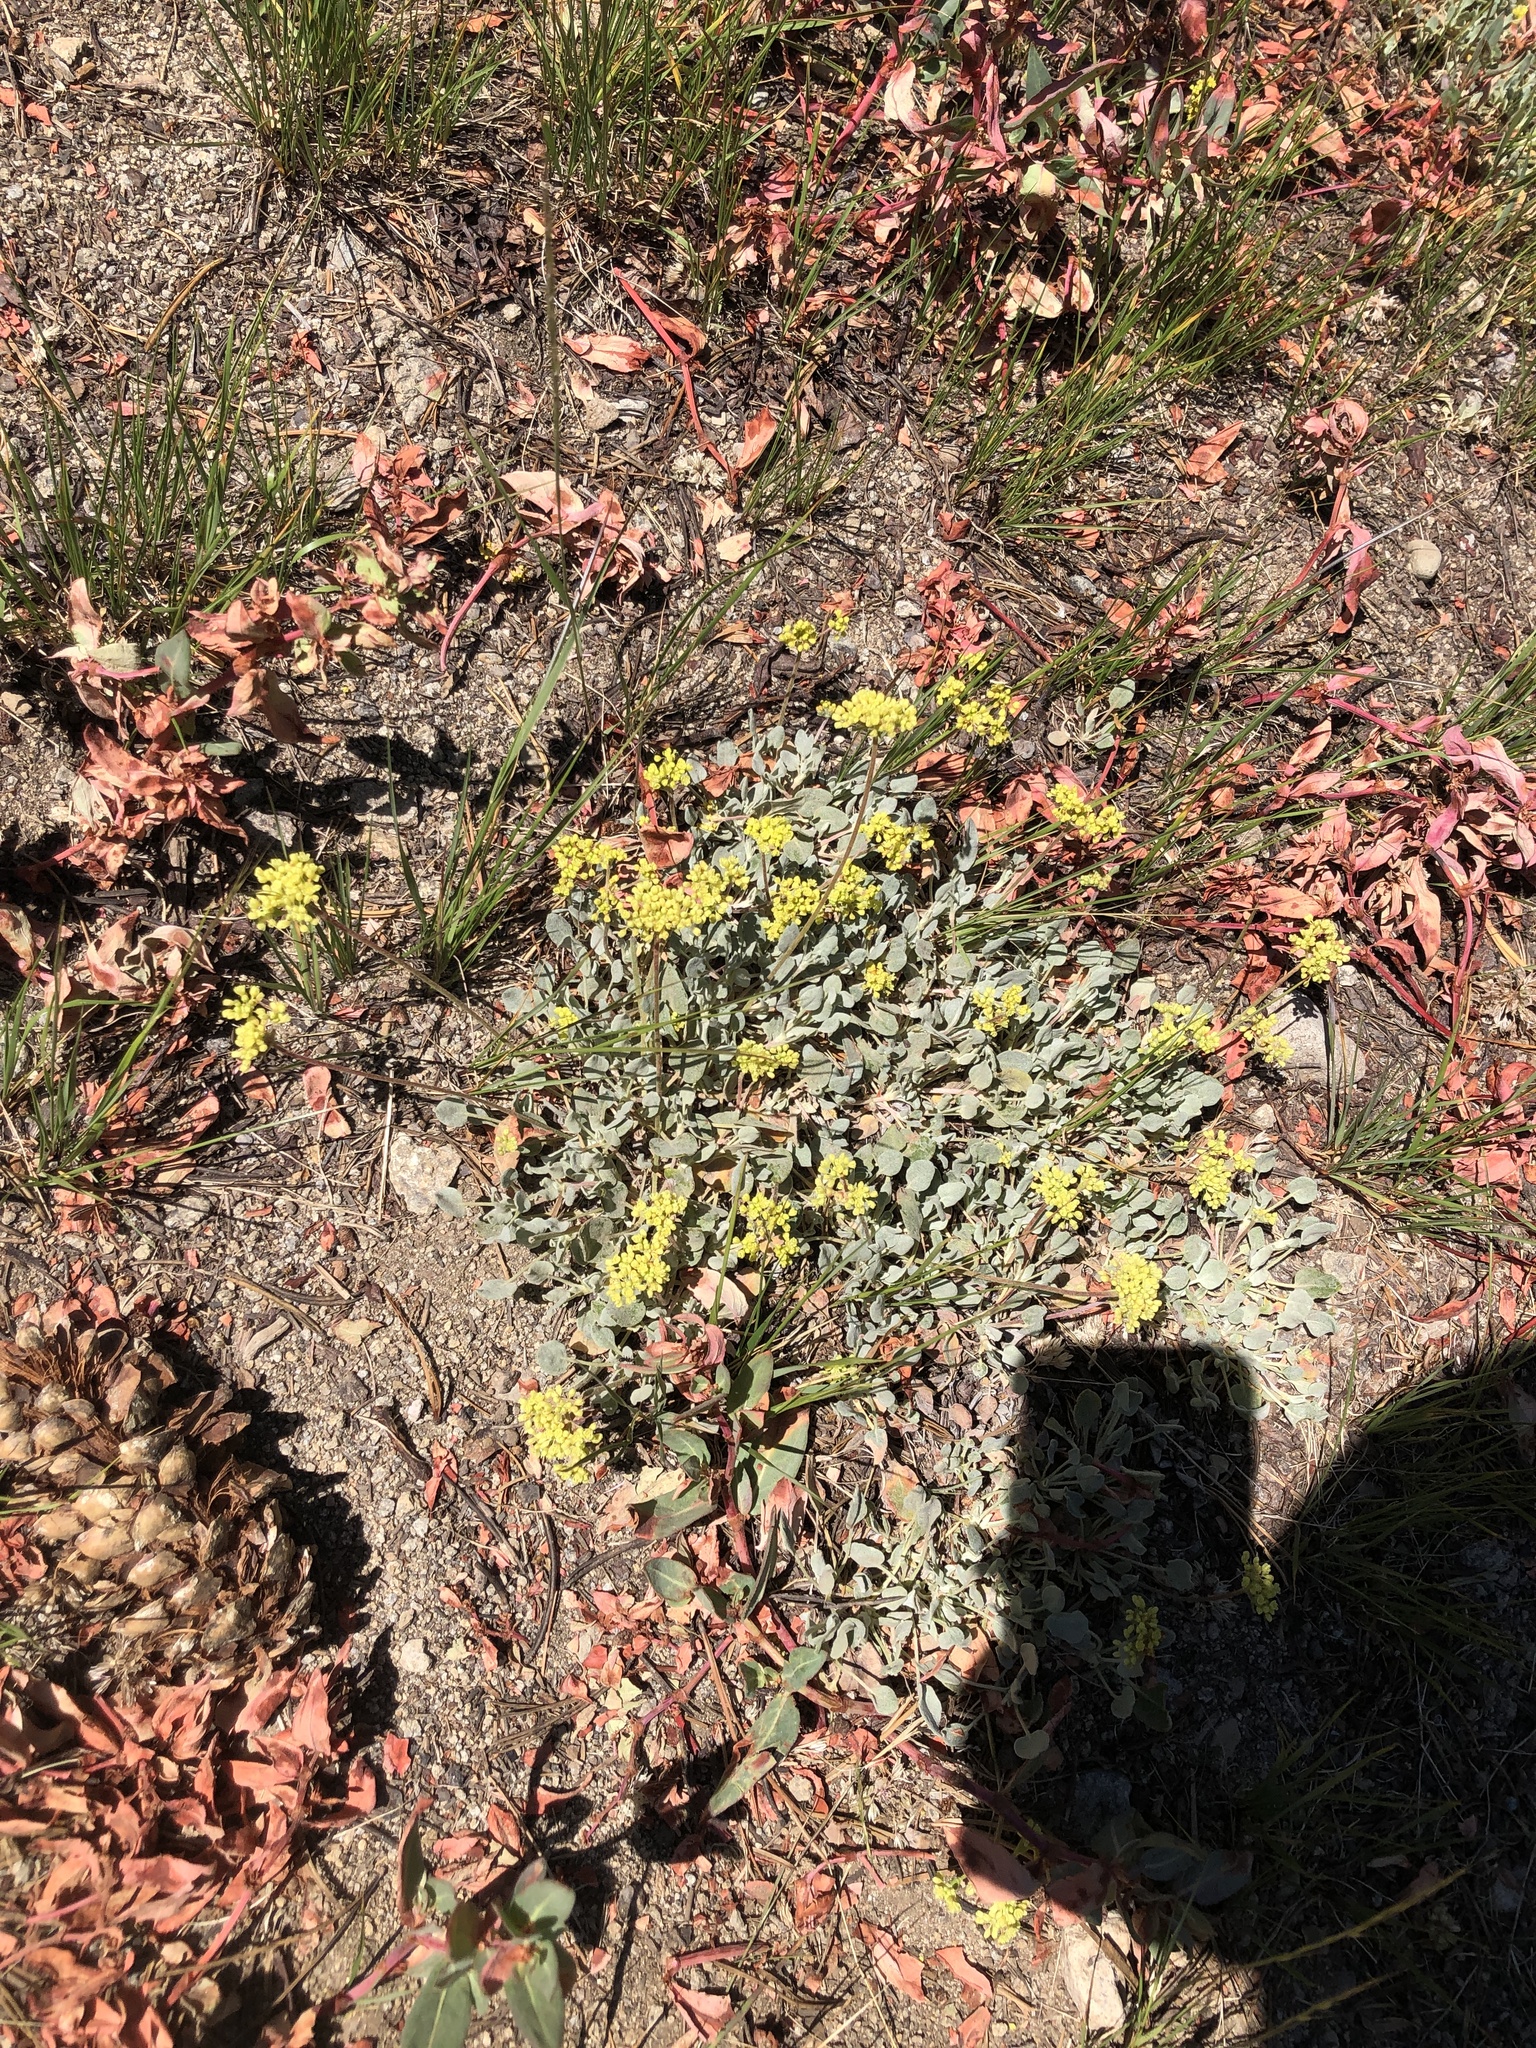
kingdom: Plantae
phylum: Tracheophyta
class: Magnoliopsida
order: Caryophyllales
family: Polygonaceae
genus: Eriogonum
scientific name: Eriogonum incanum
